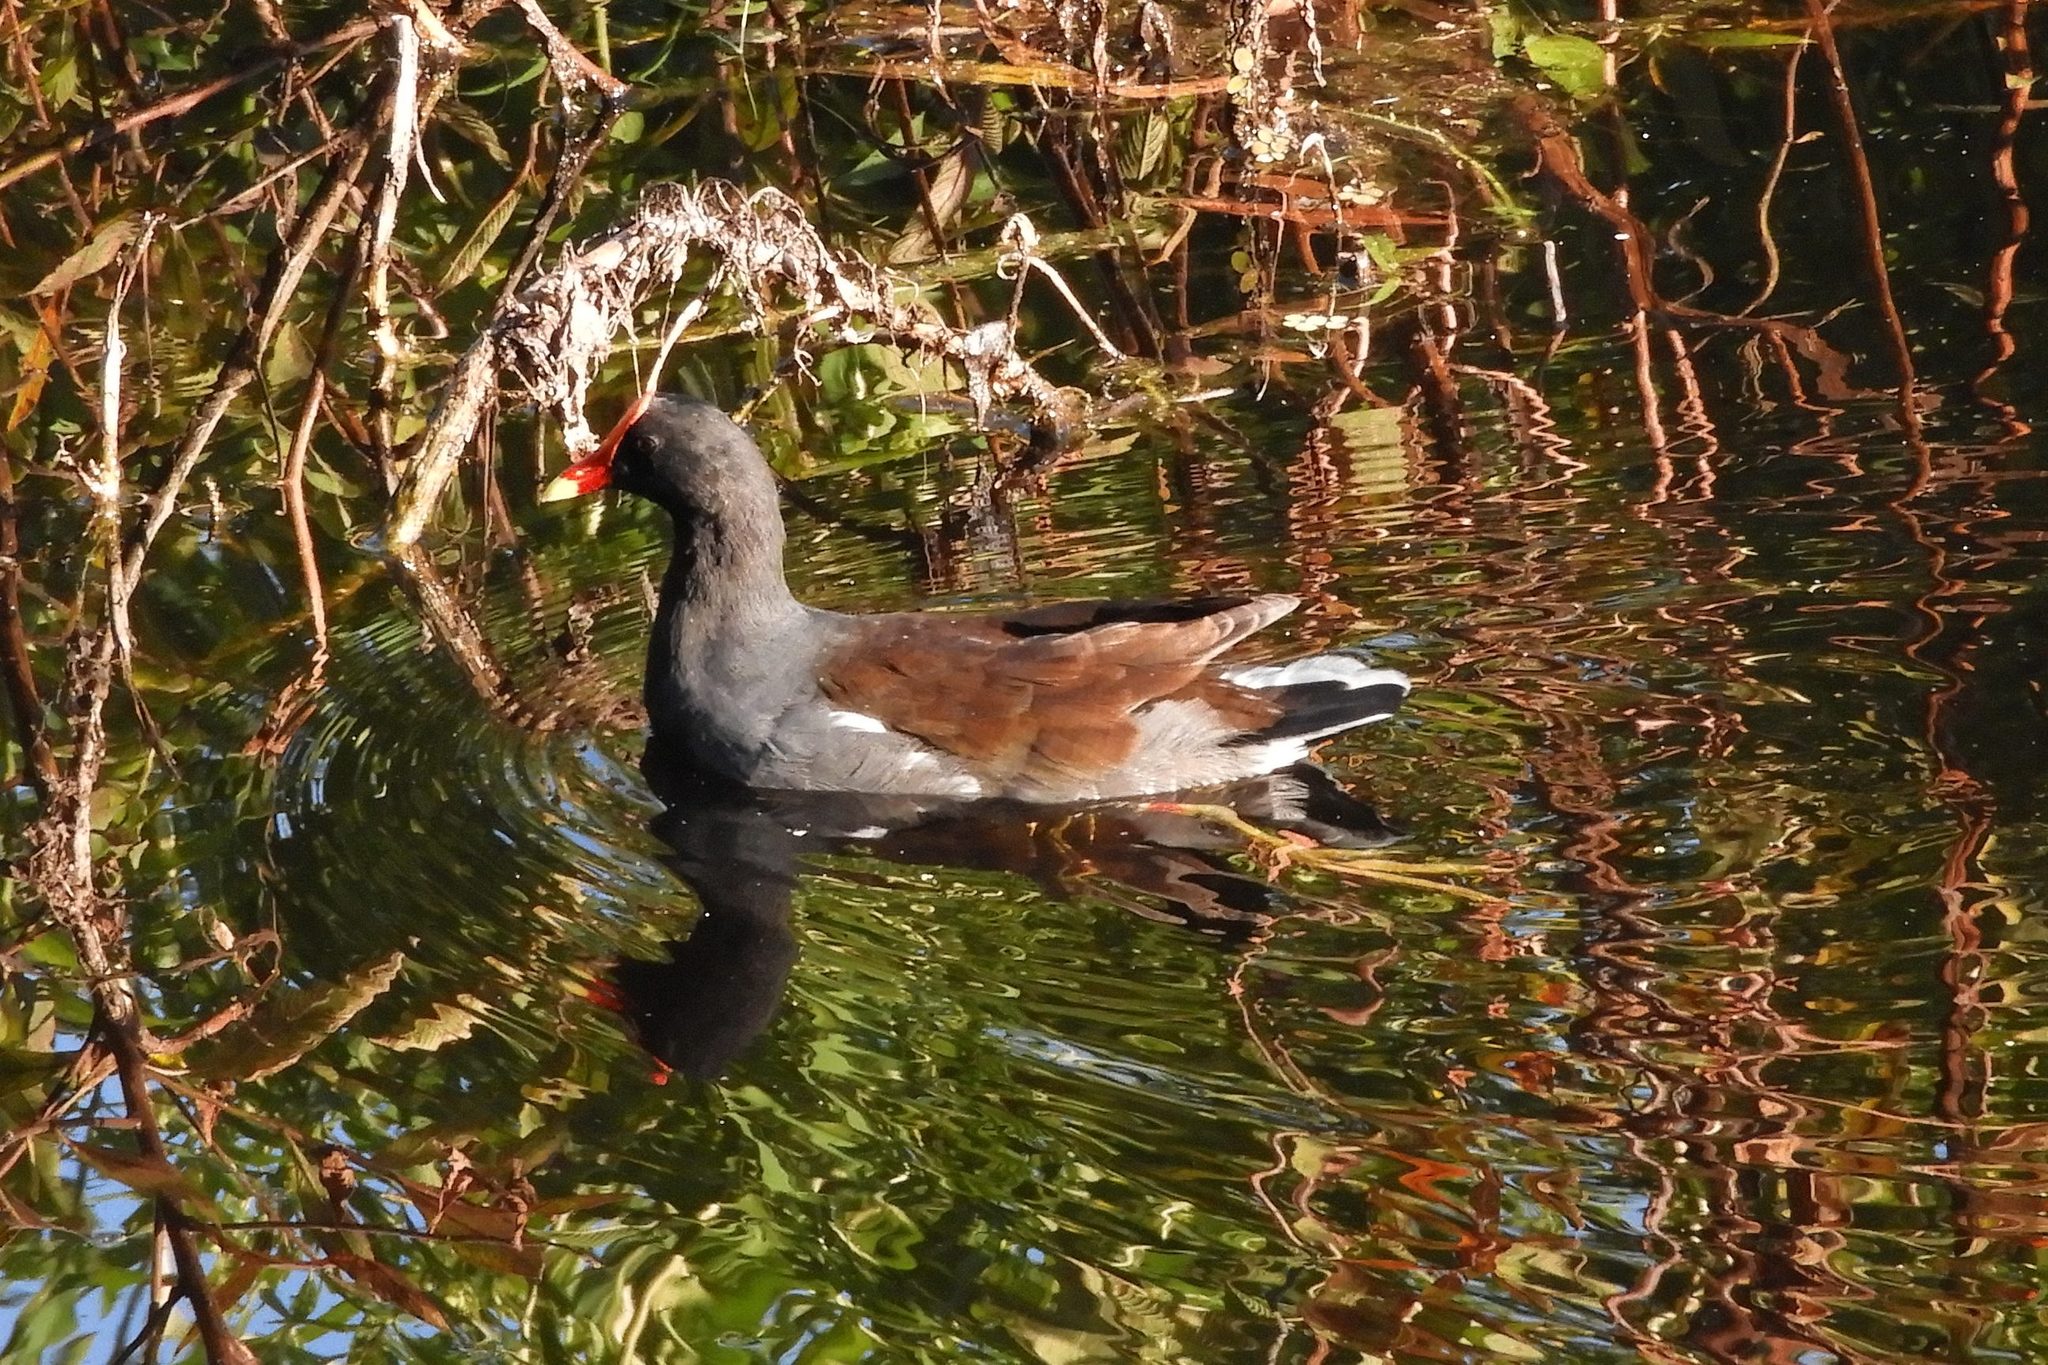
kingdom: Animalia
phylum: Chordata
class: Aves
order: Gruiformes
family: Rallidae
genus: Gallinula
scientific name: Gallinula chloropus
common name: Common moorhen
